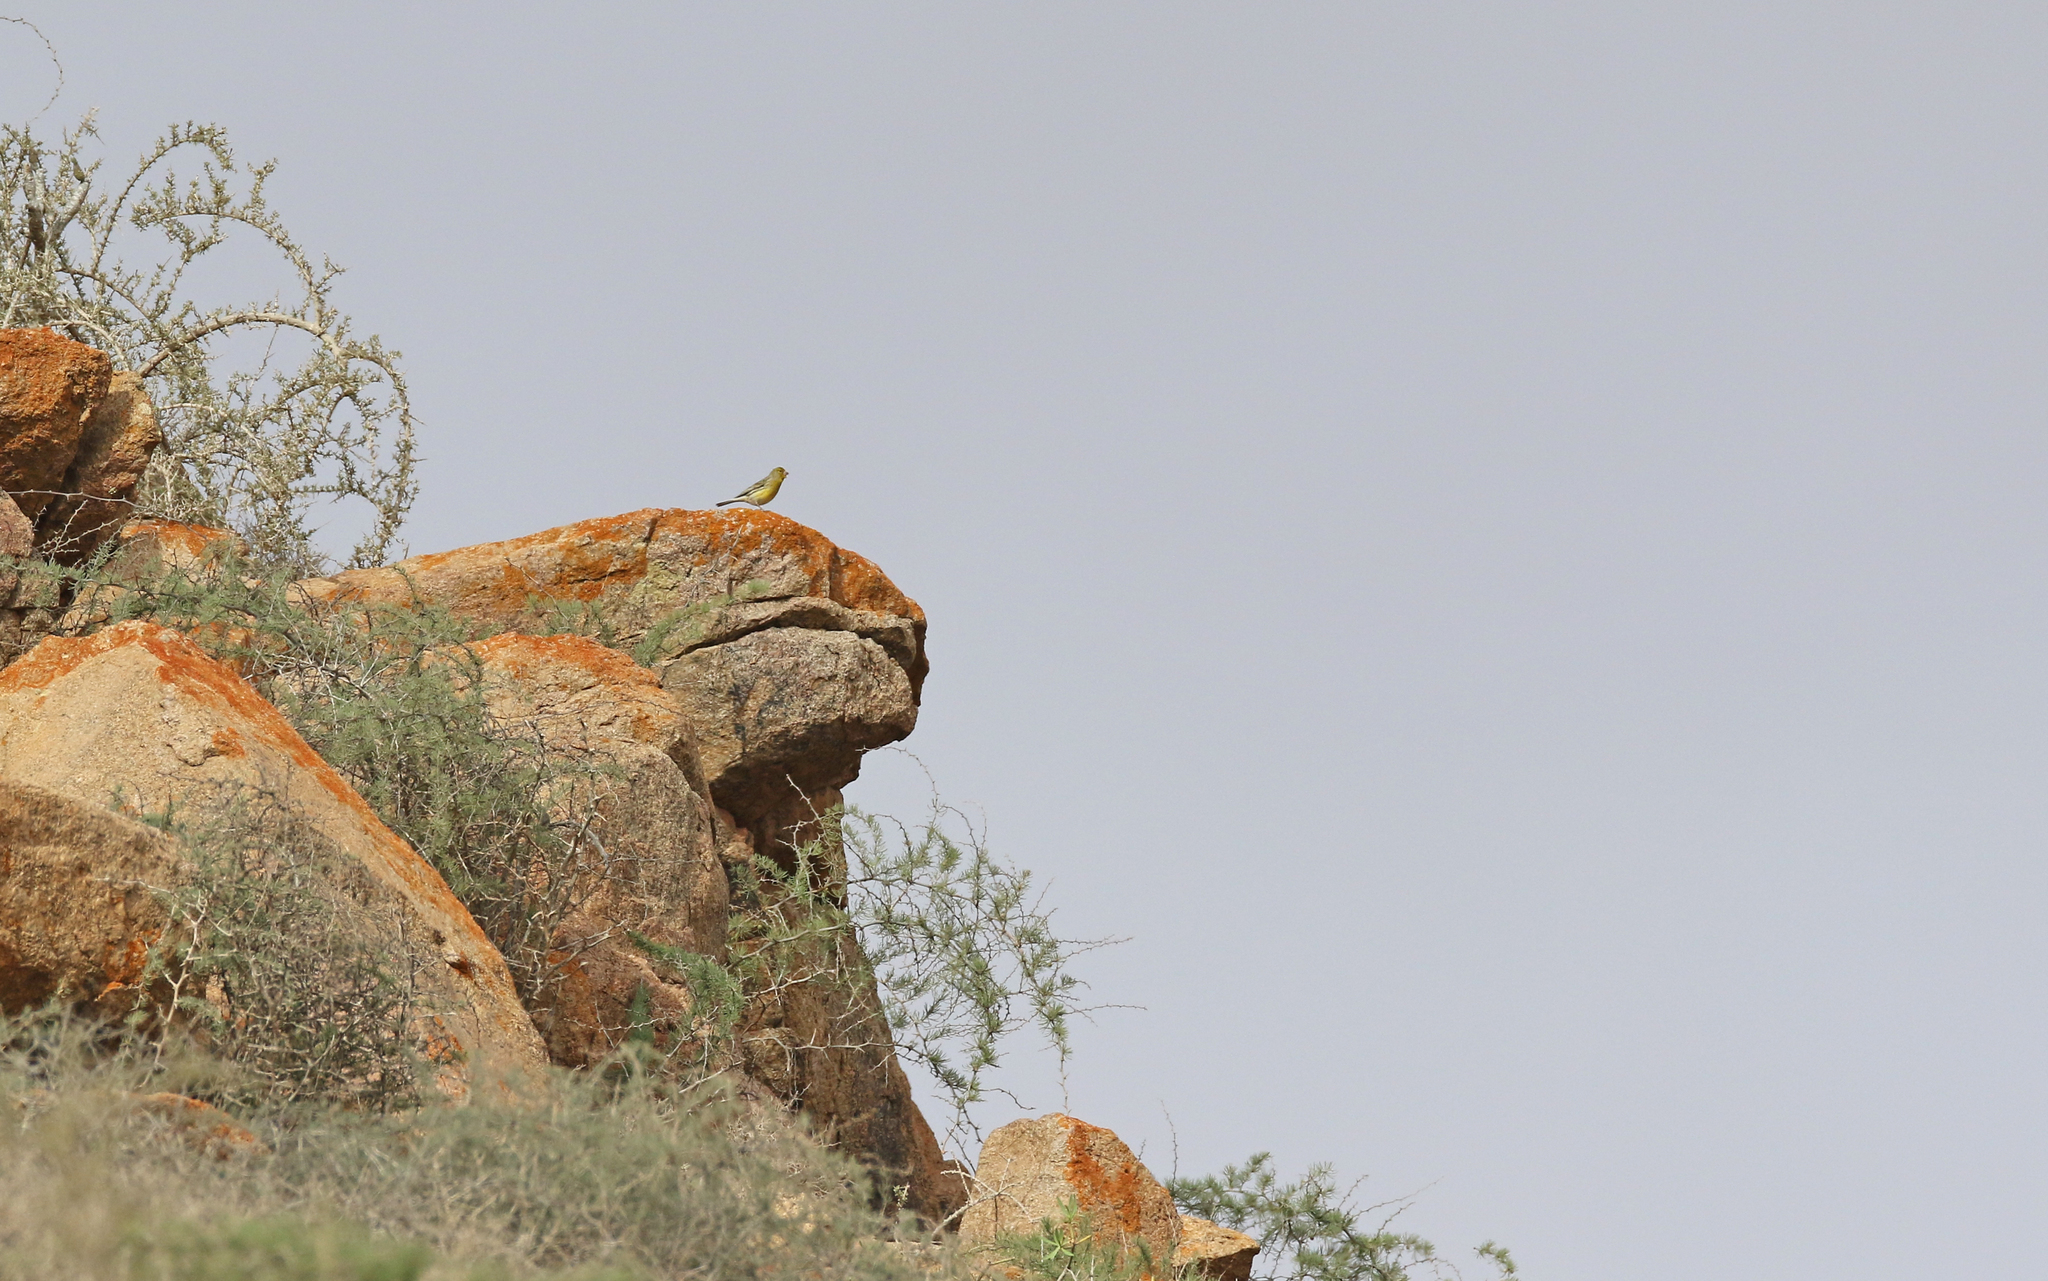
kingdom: Animalia
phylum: Chordata
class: Aves
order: Passeriformes
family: Fringillidae
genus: Serinus
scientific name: Serinus canaria
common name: Atlantic canary
